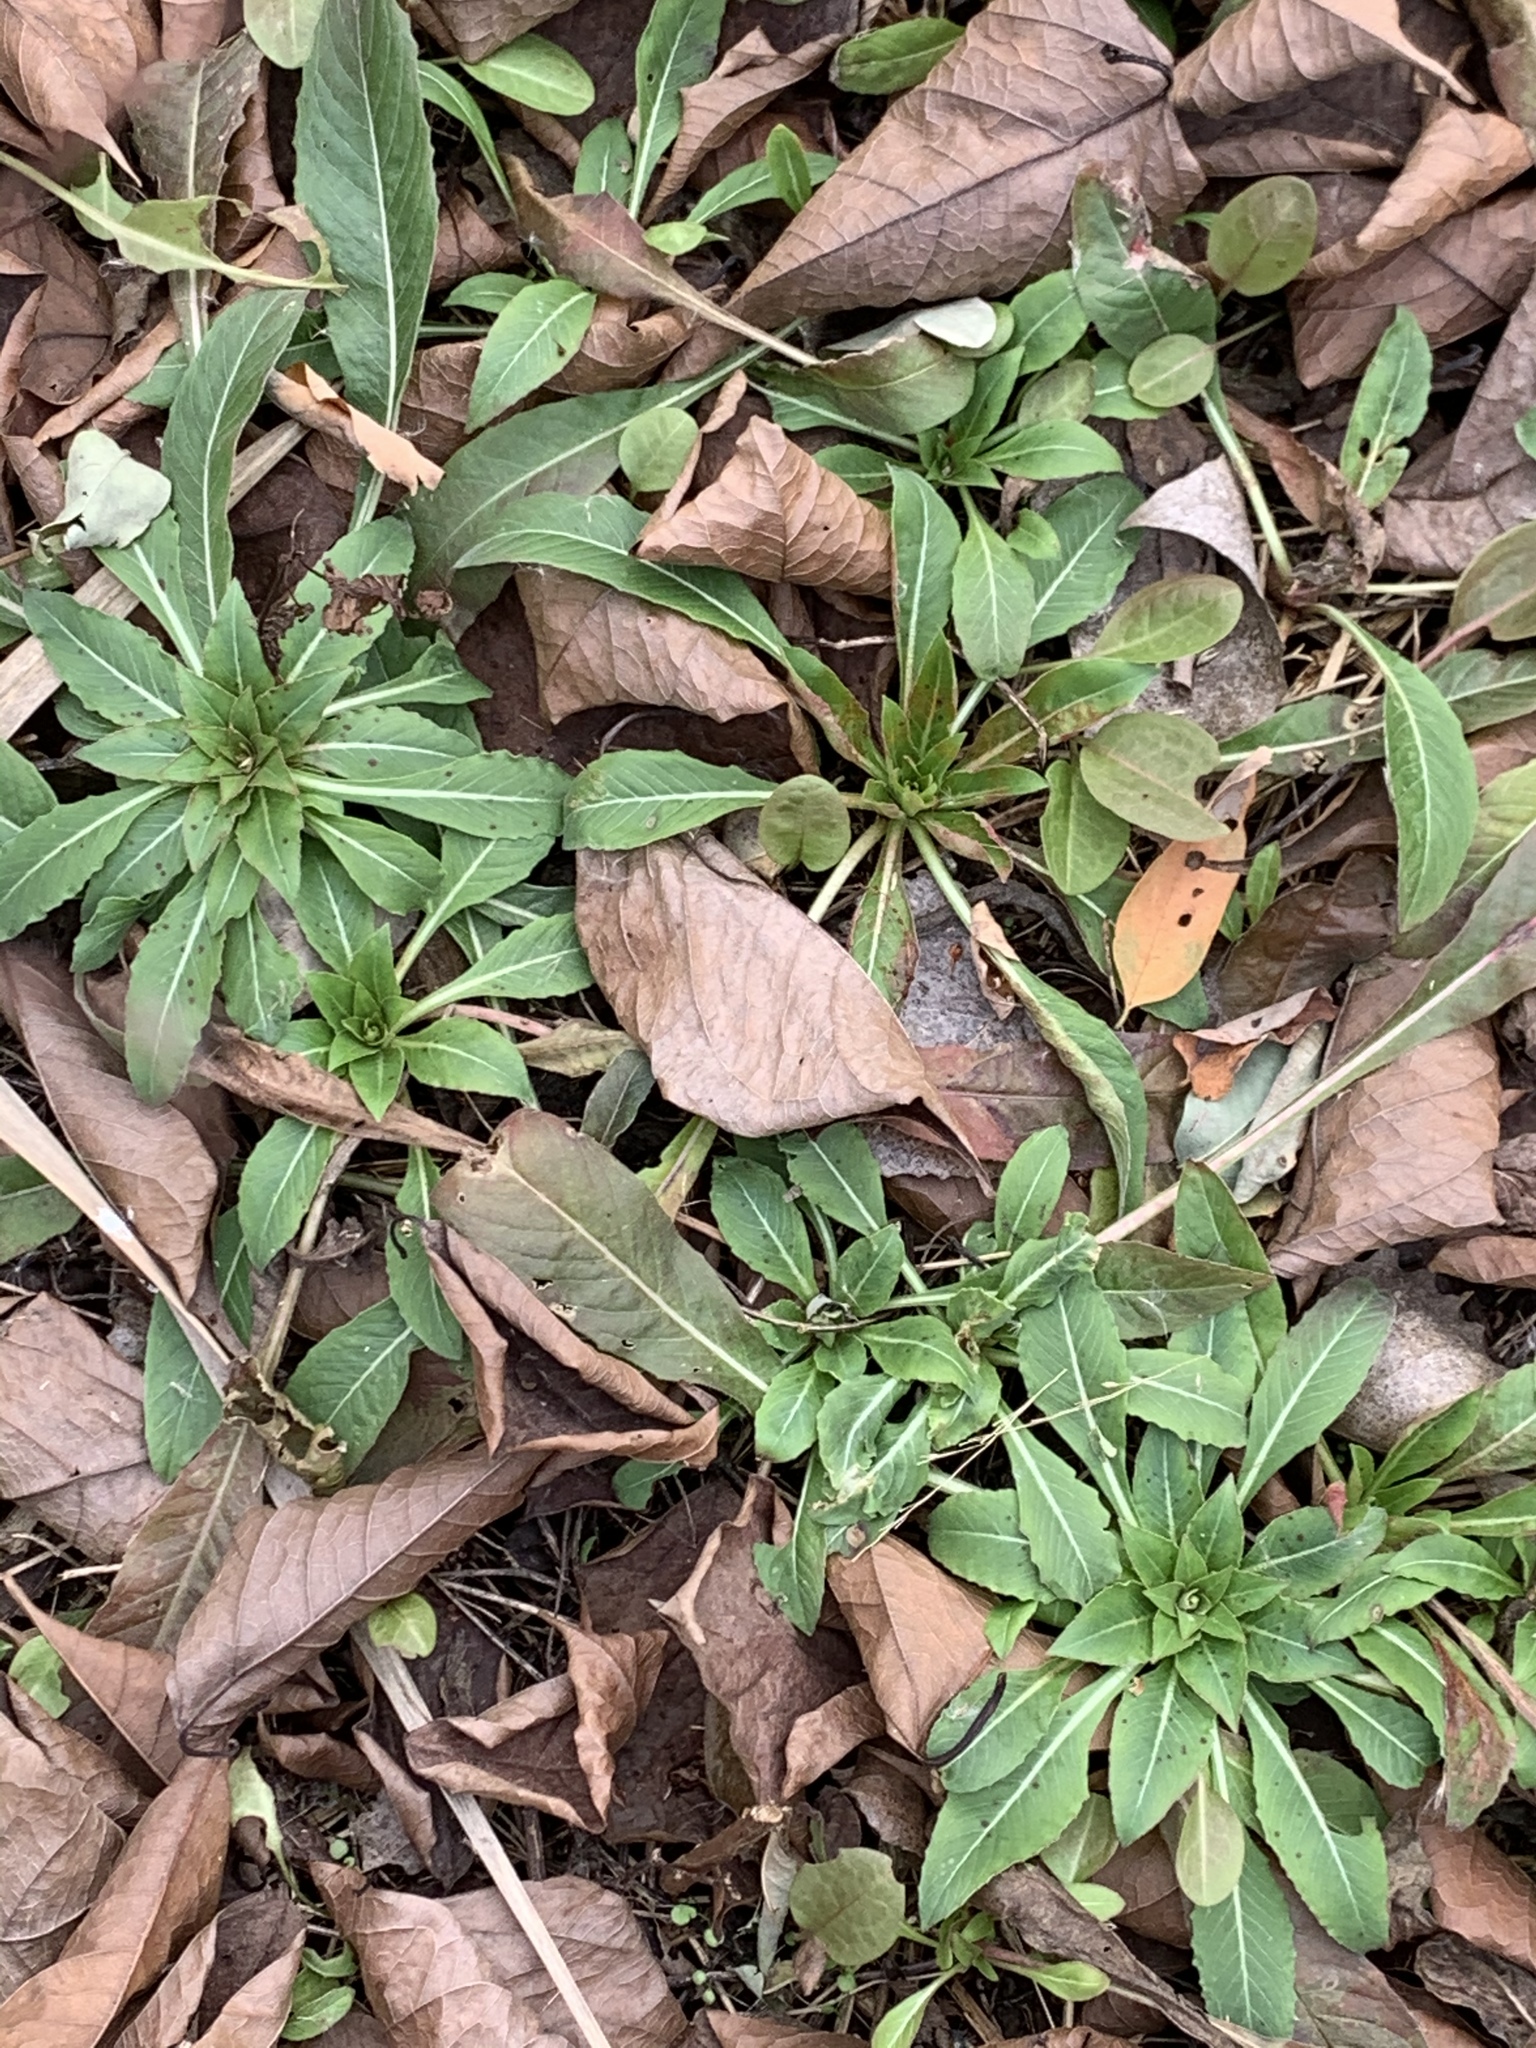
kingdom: Plantae
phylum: Tracheophyta
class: Magnoliopsida
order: Myrtales
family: Onagraceae
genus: Oenothera
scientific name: Oenothera biennis
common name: Common evening-primrose
